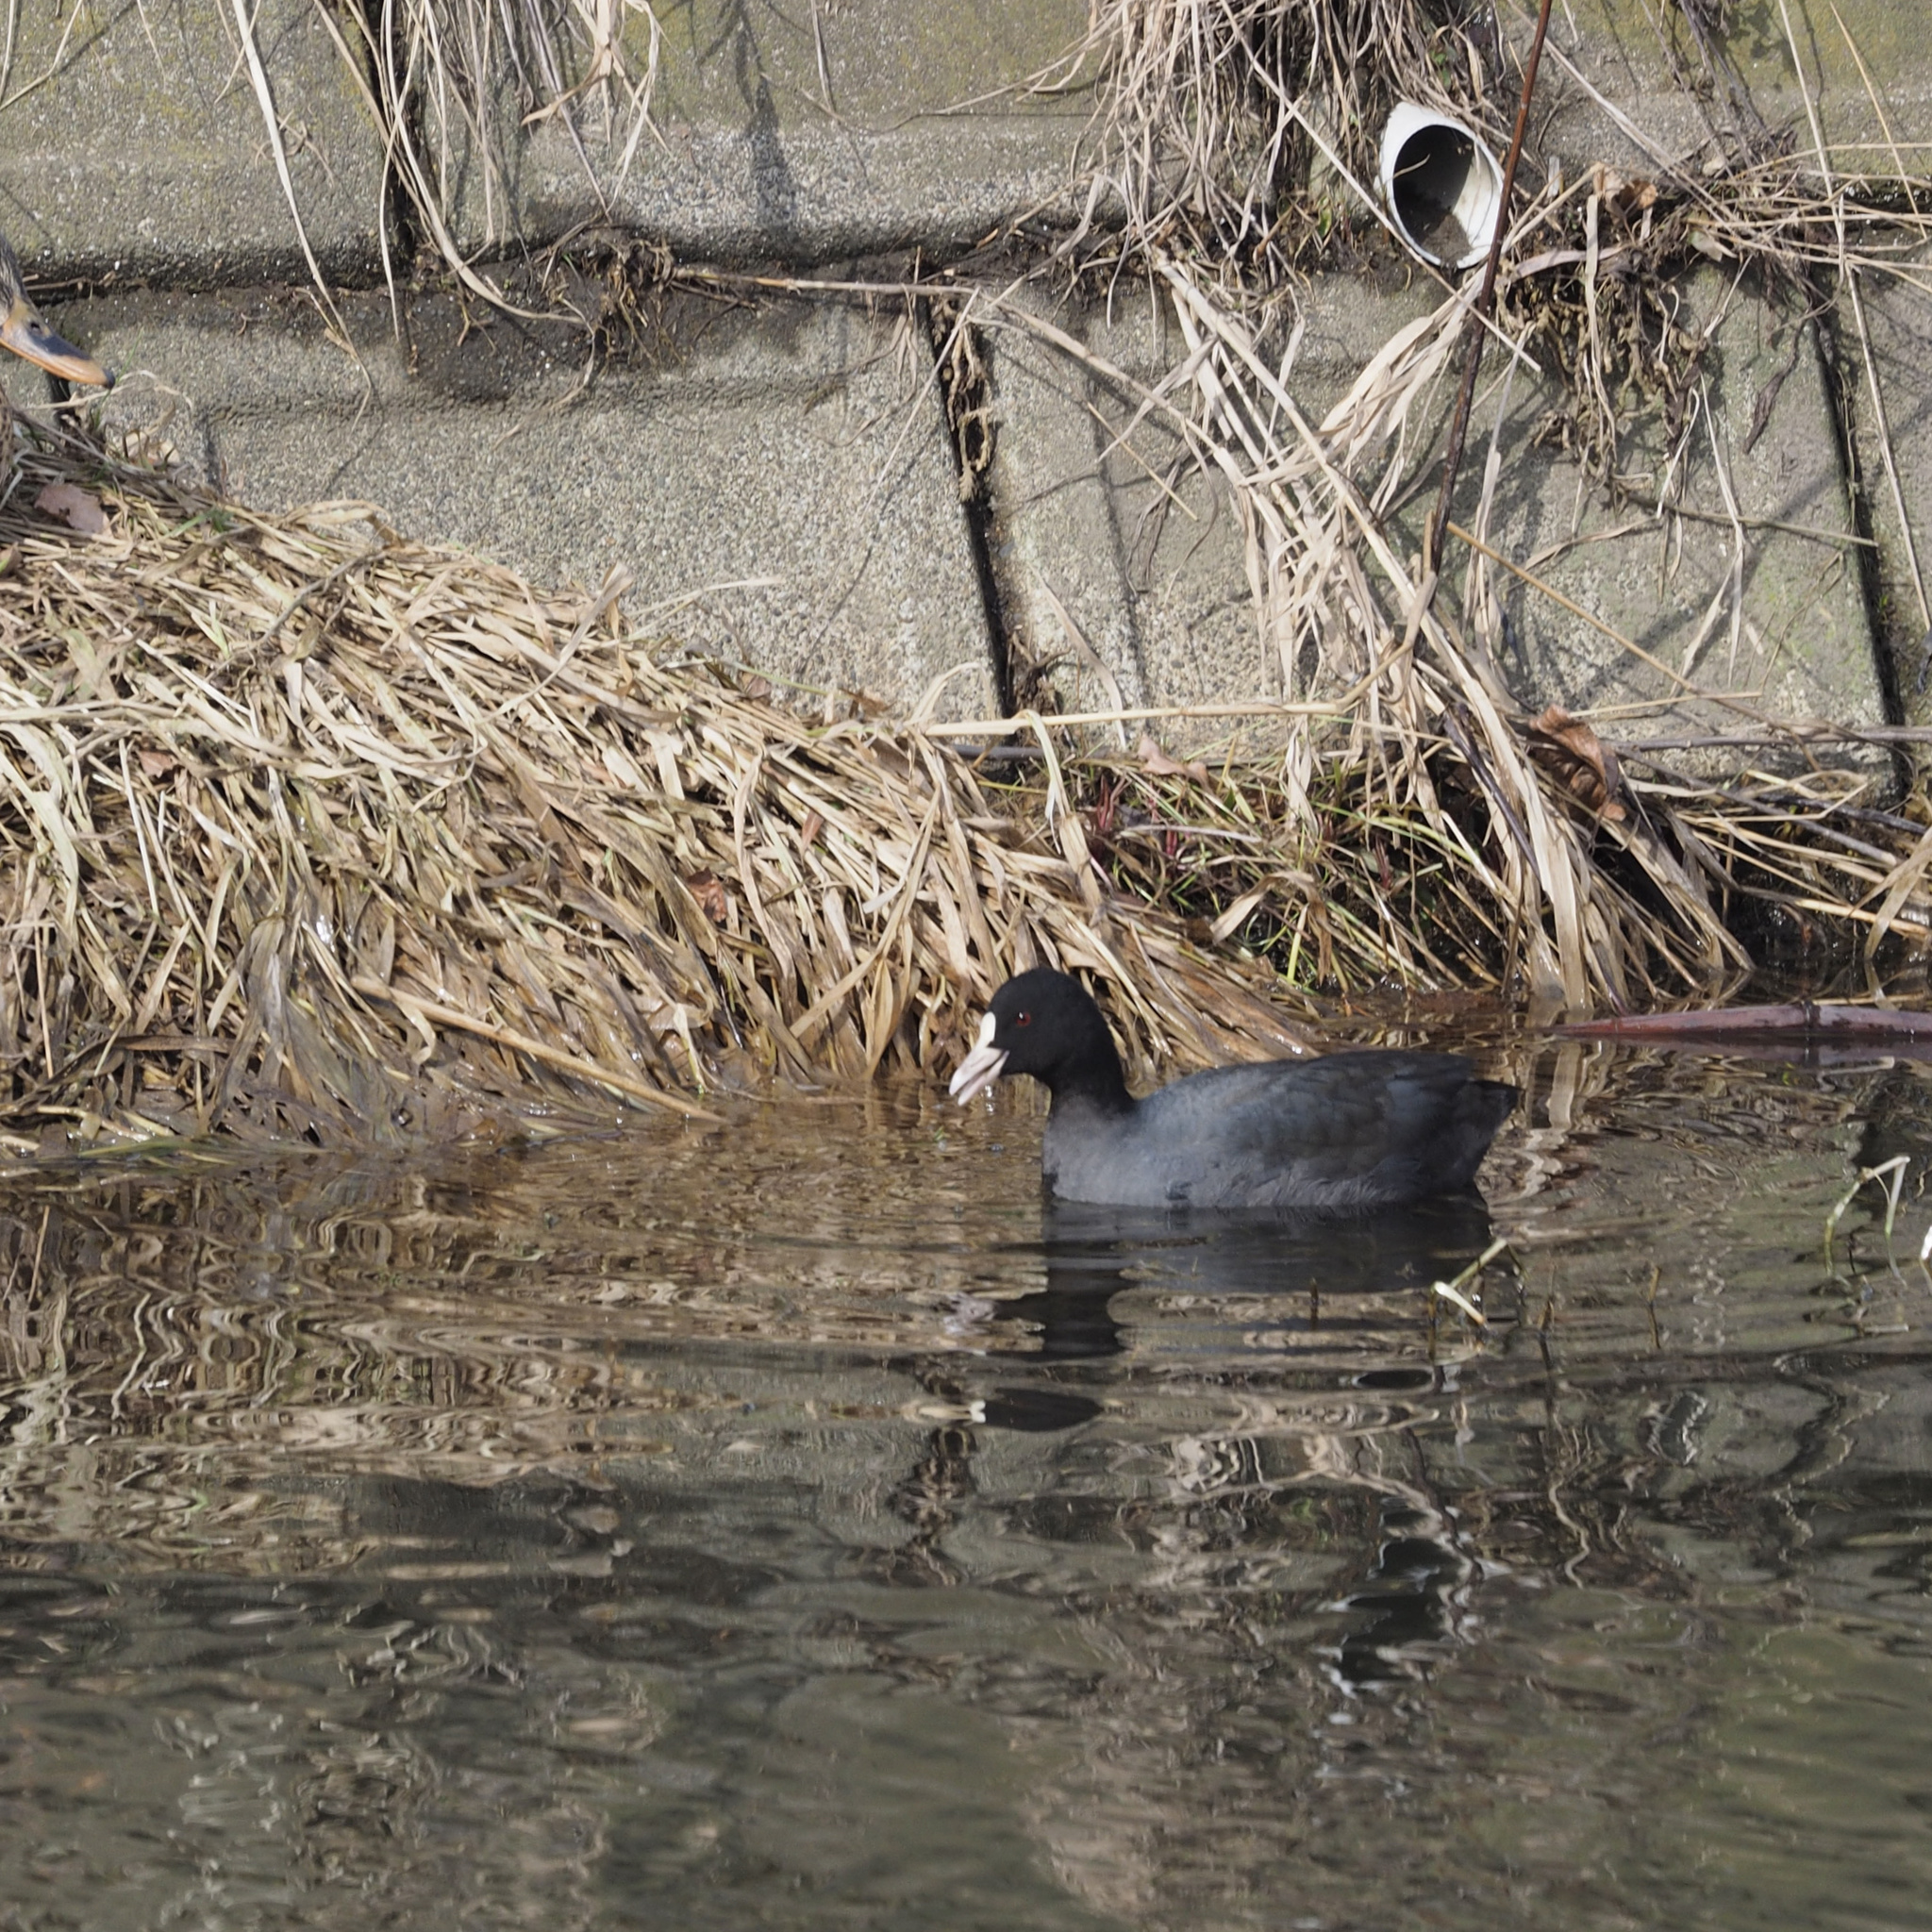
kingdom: Animalia
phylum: Chordata
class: Aves
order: Gruiformes
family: Rallidae
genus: Fulica
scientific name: Fulica atra
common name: Eurasian coot
